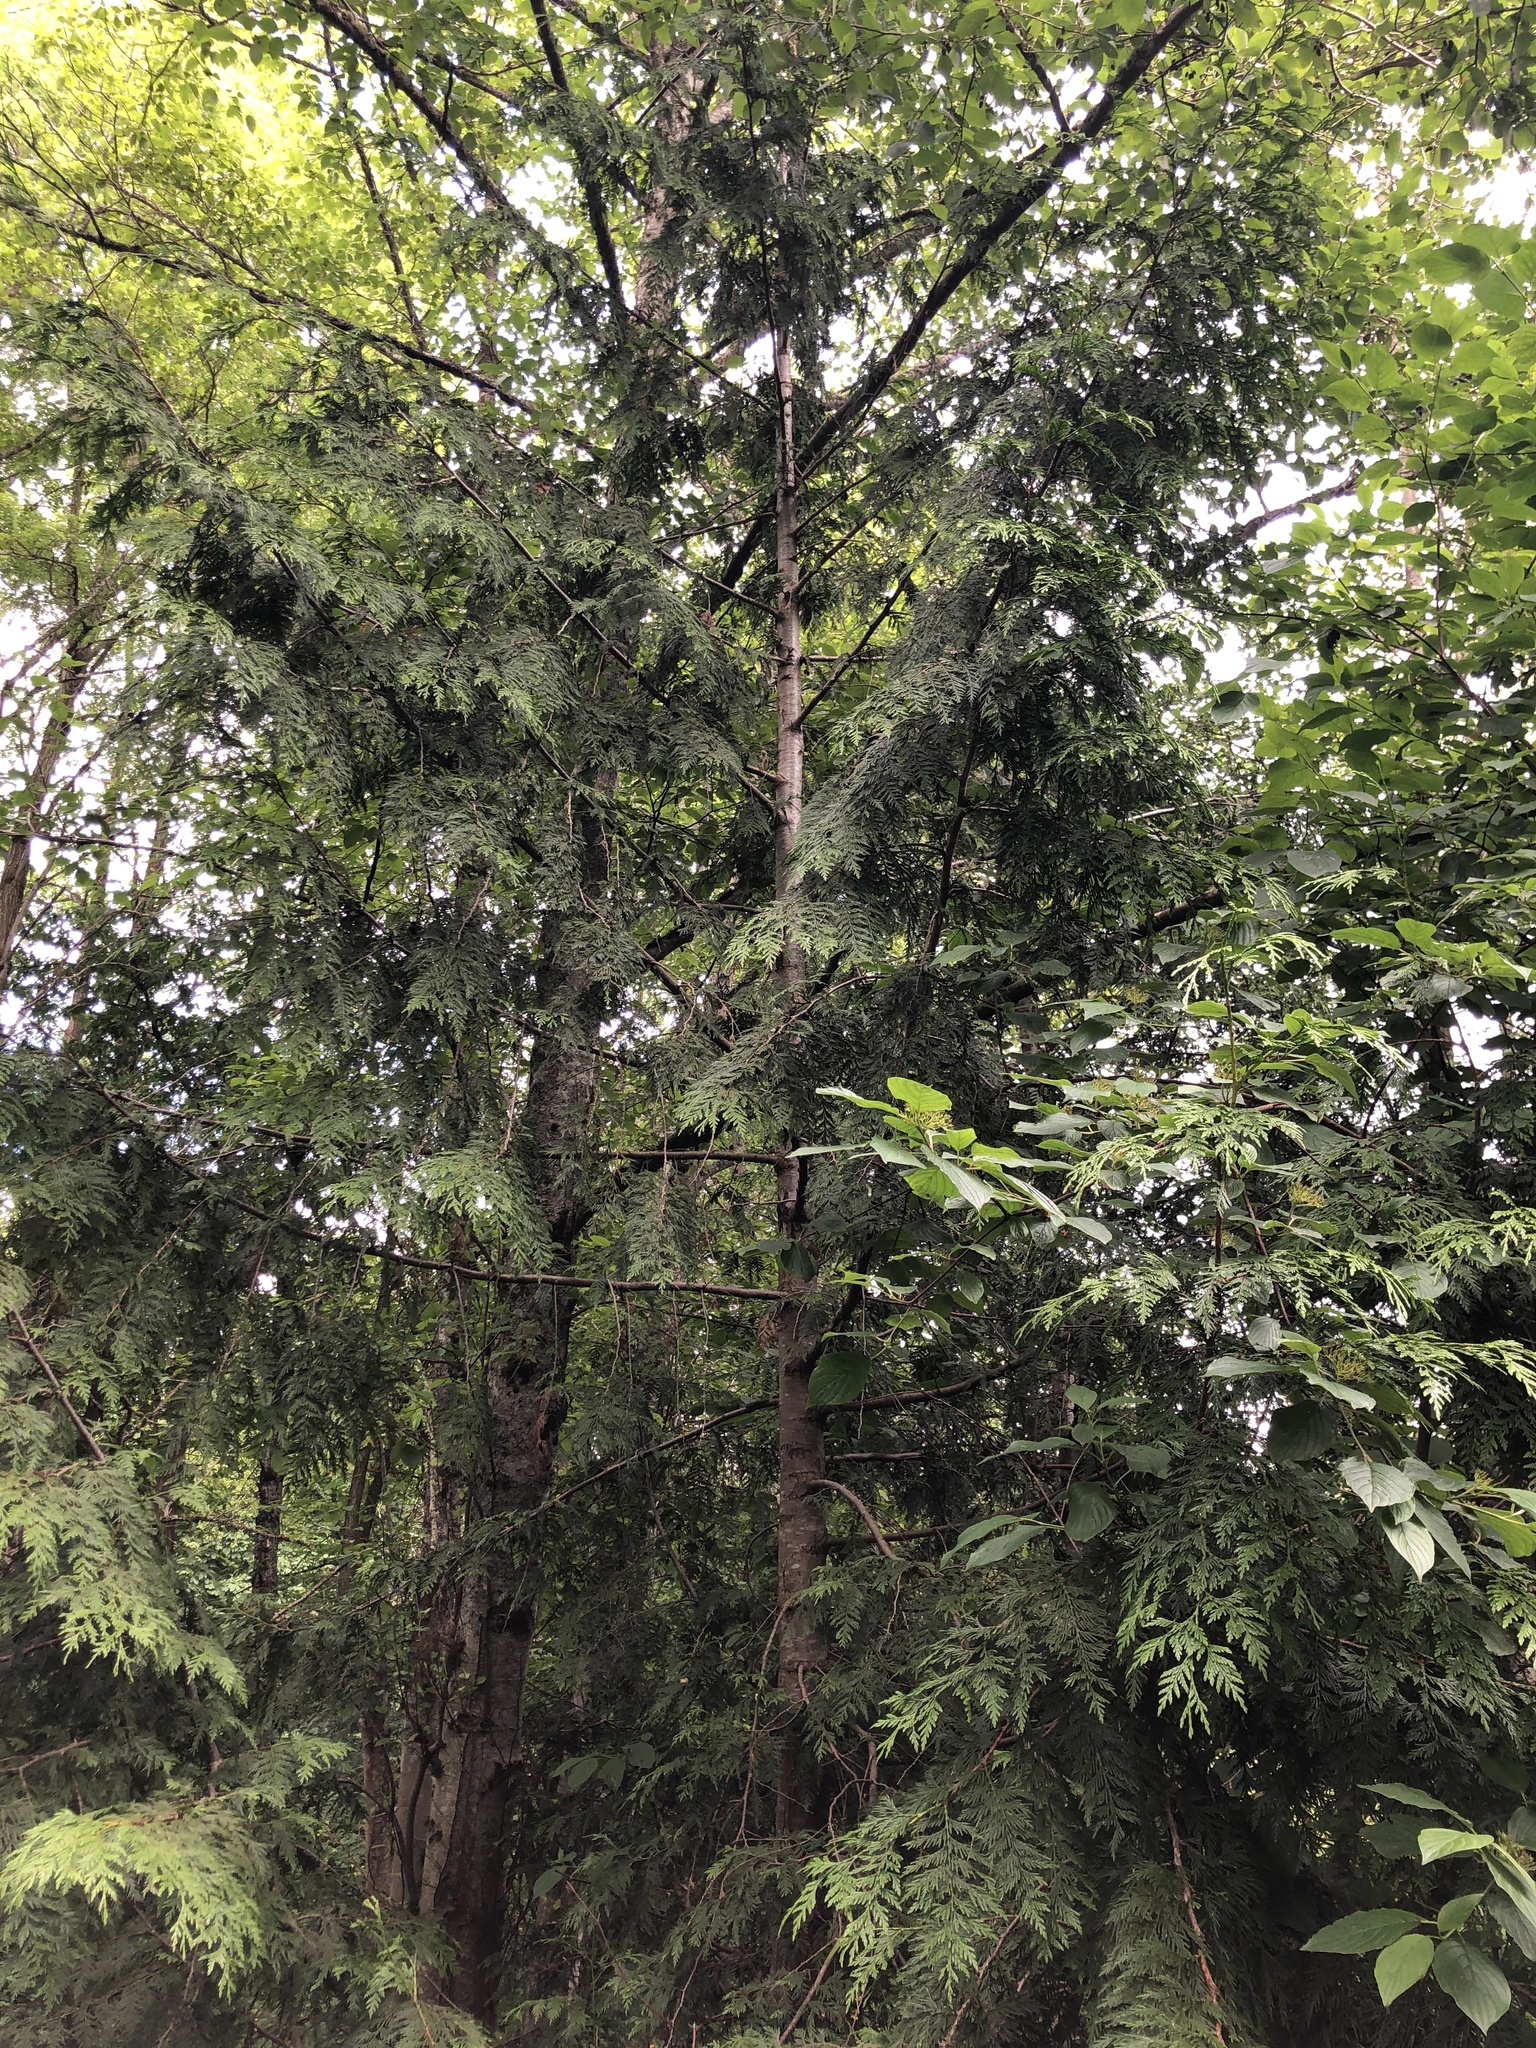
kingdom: Plantae
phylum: Tracheophyta
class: Pinopsida
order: Pinales
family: Cupressaceae
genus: Thuja
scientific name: Thuja plicata
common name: Western red-cedar
